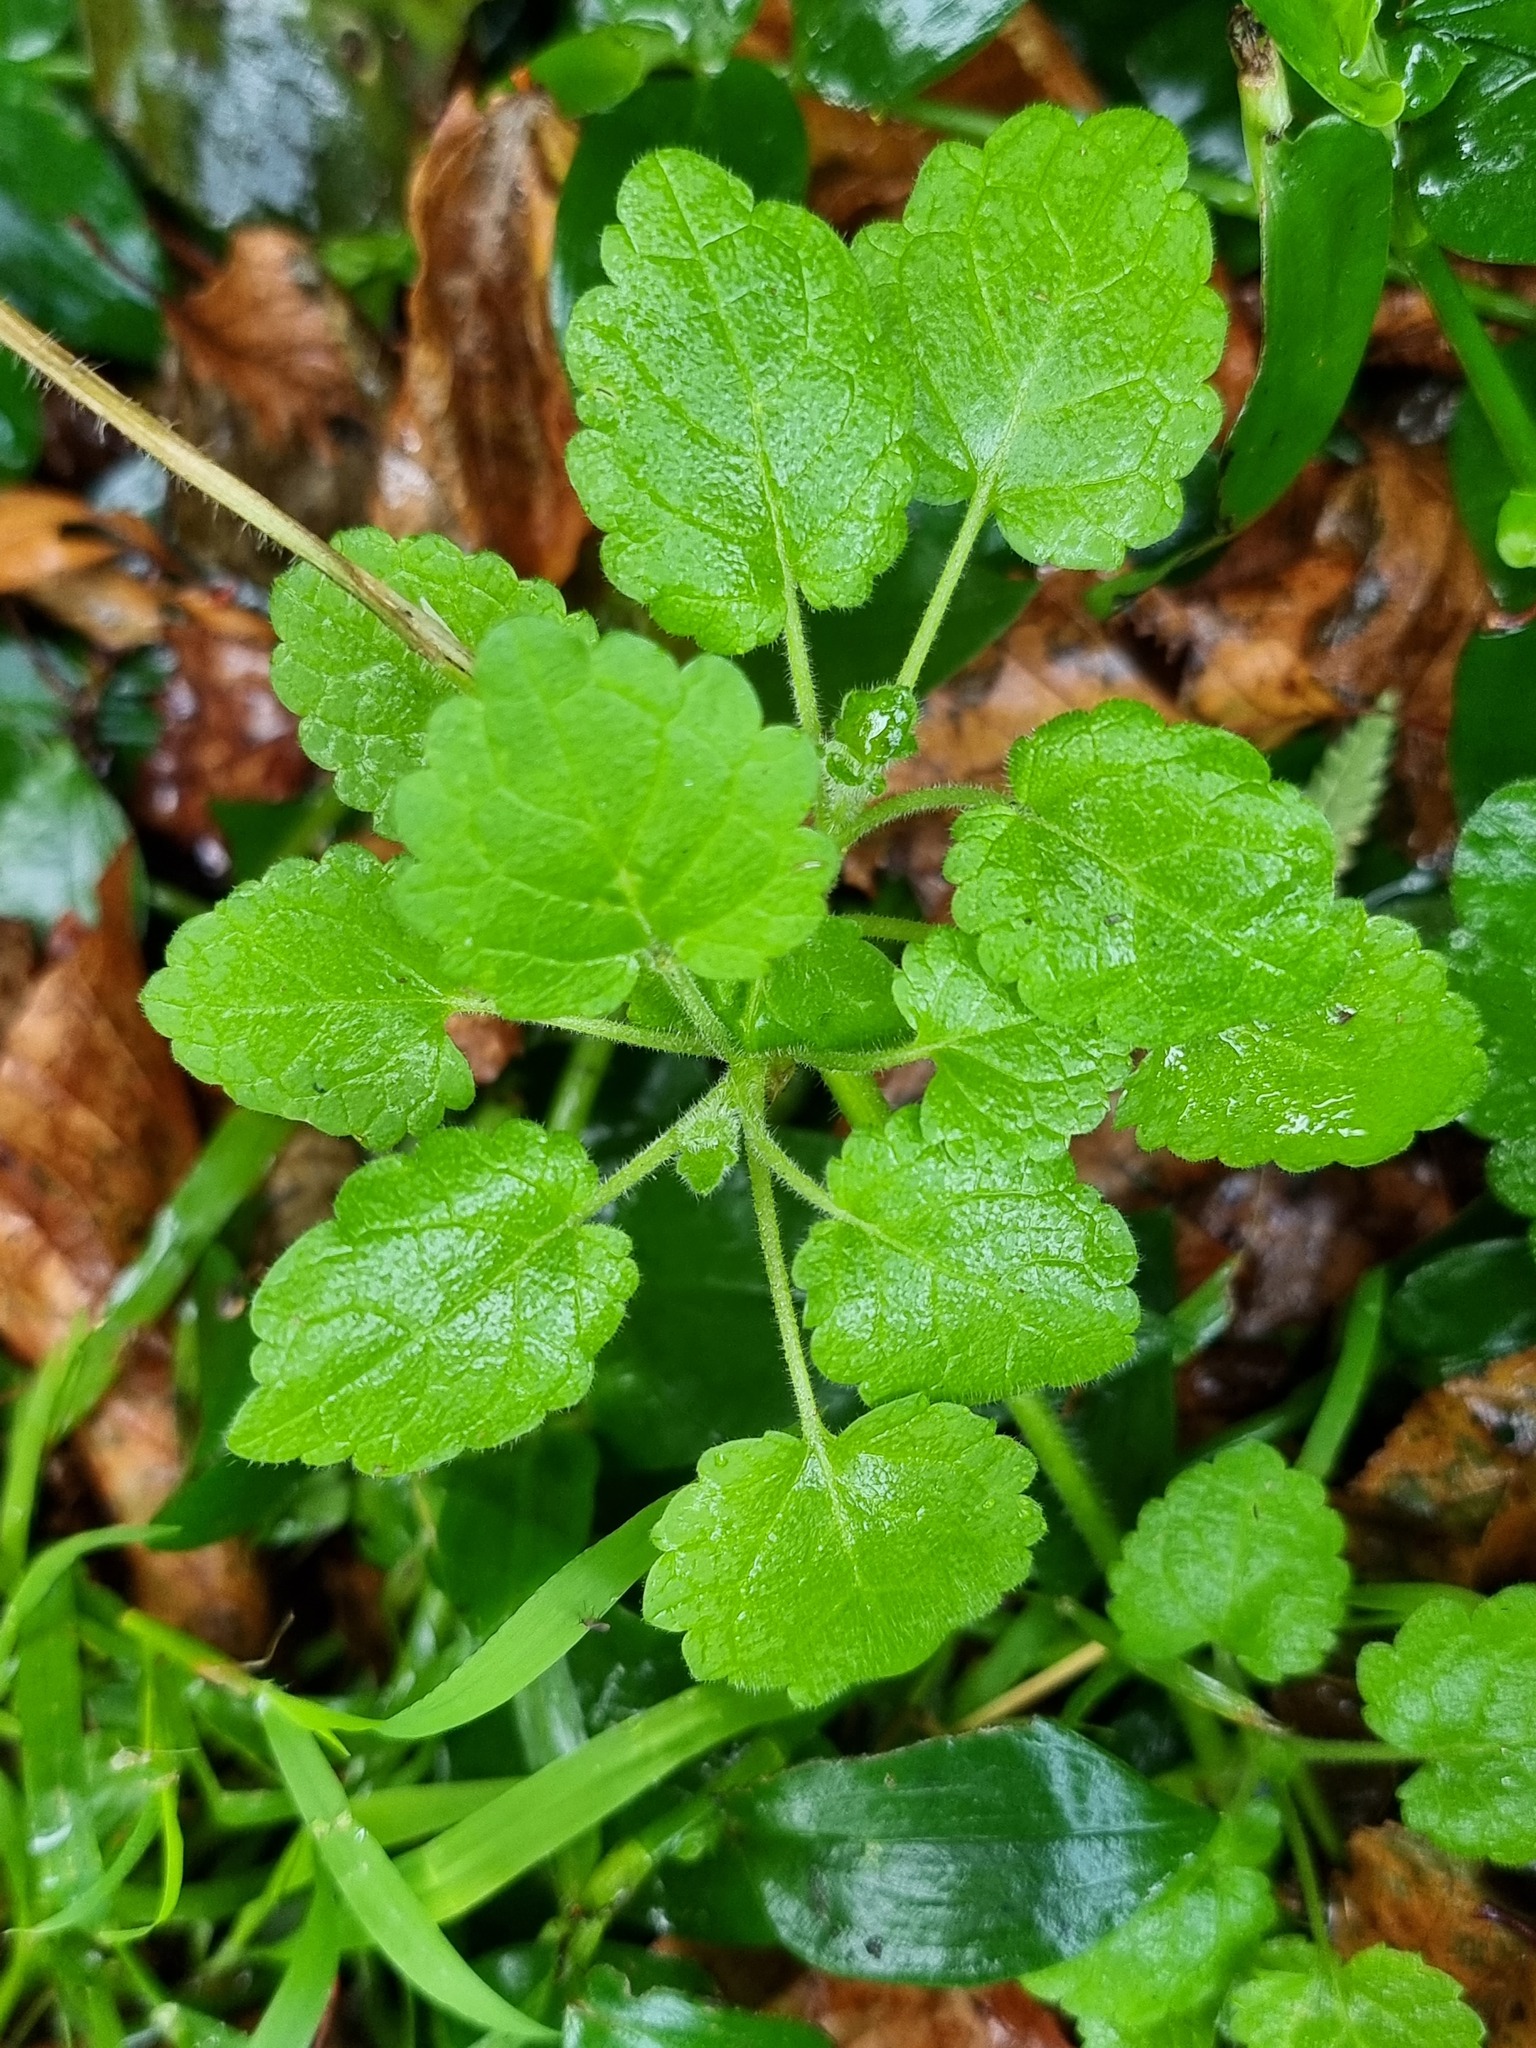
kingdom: Plantae
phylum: Tracheophyta
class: Magnoliopsida
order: Lamiales
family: Lamiaceae
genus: Stachys
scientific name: Stachys sylvatica
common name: Hedge woundwort
